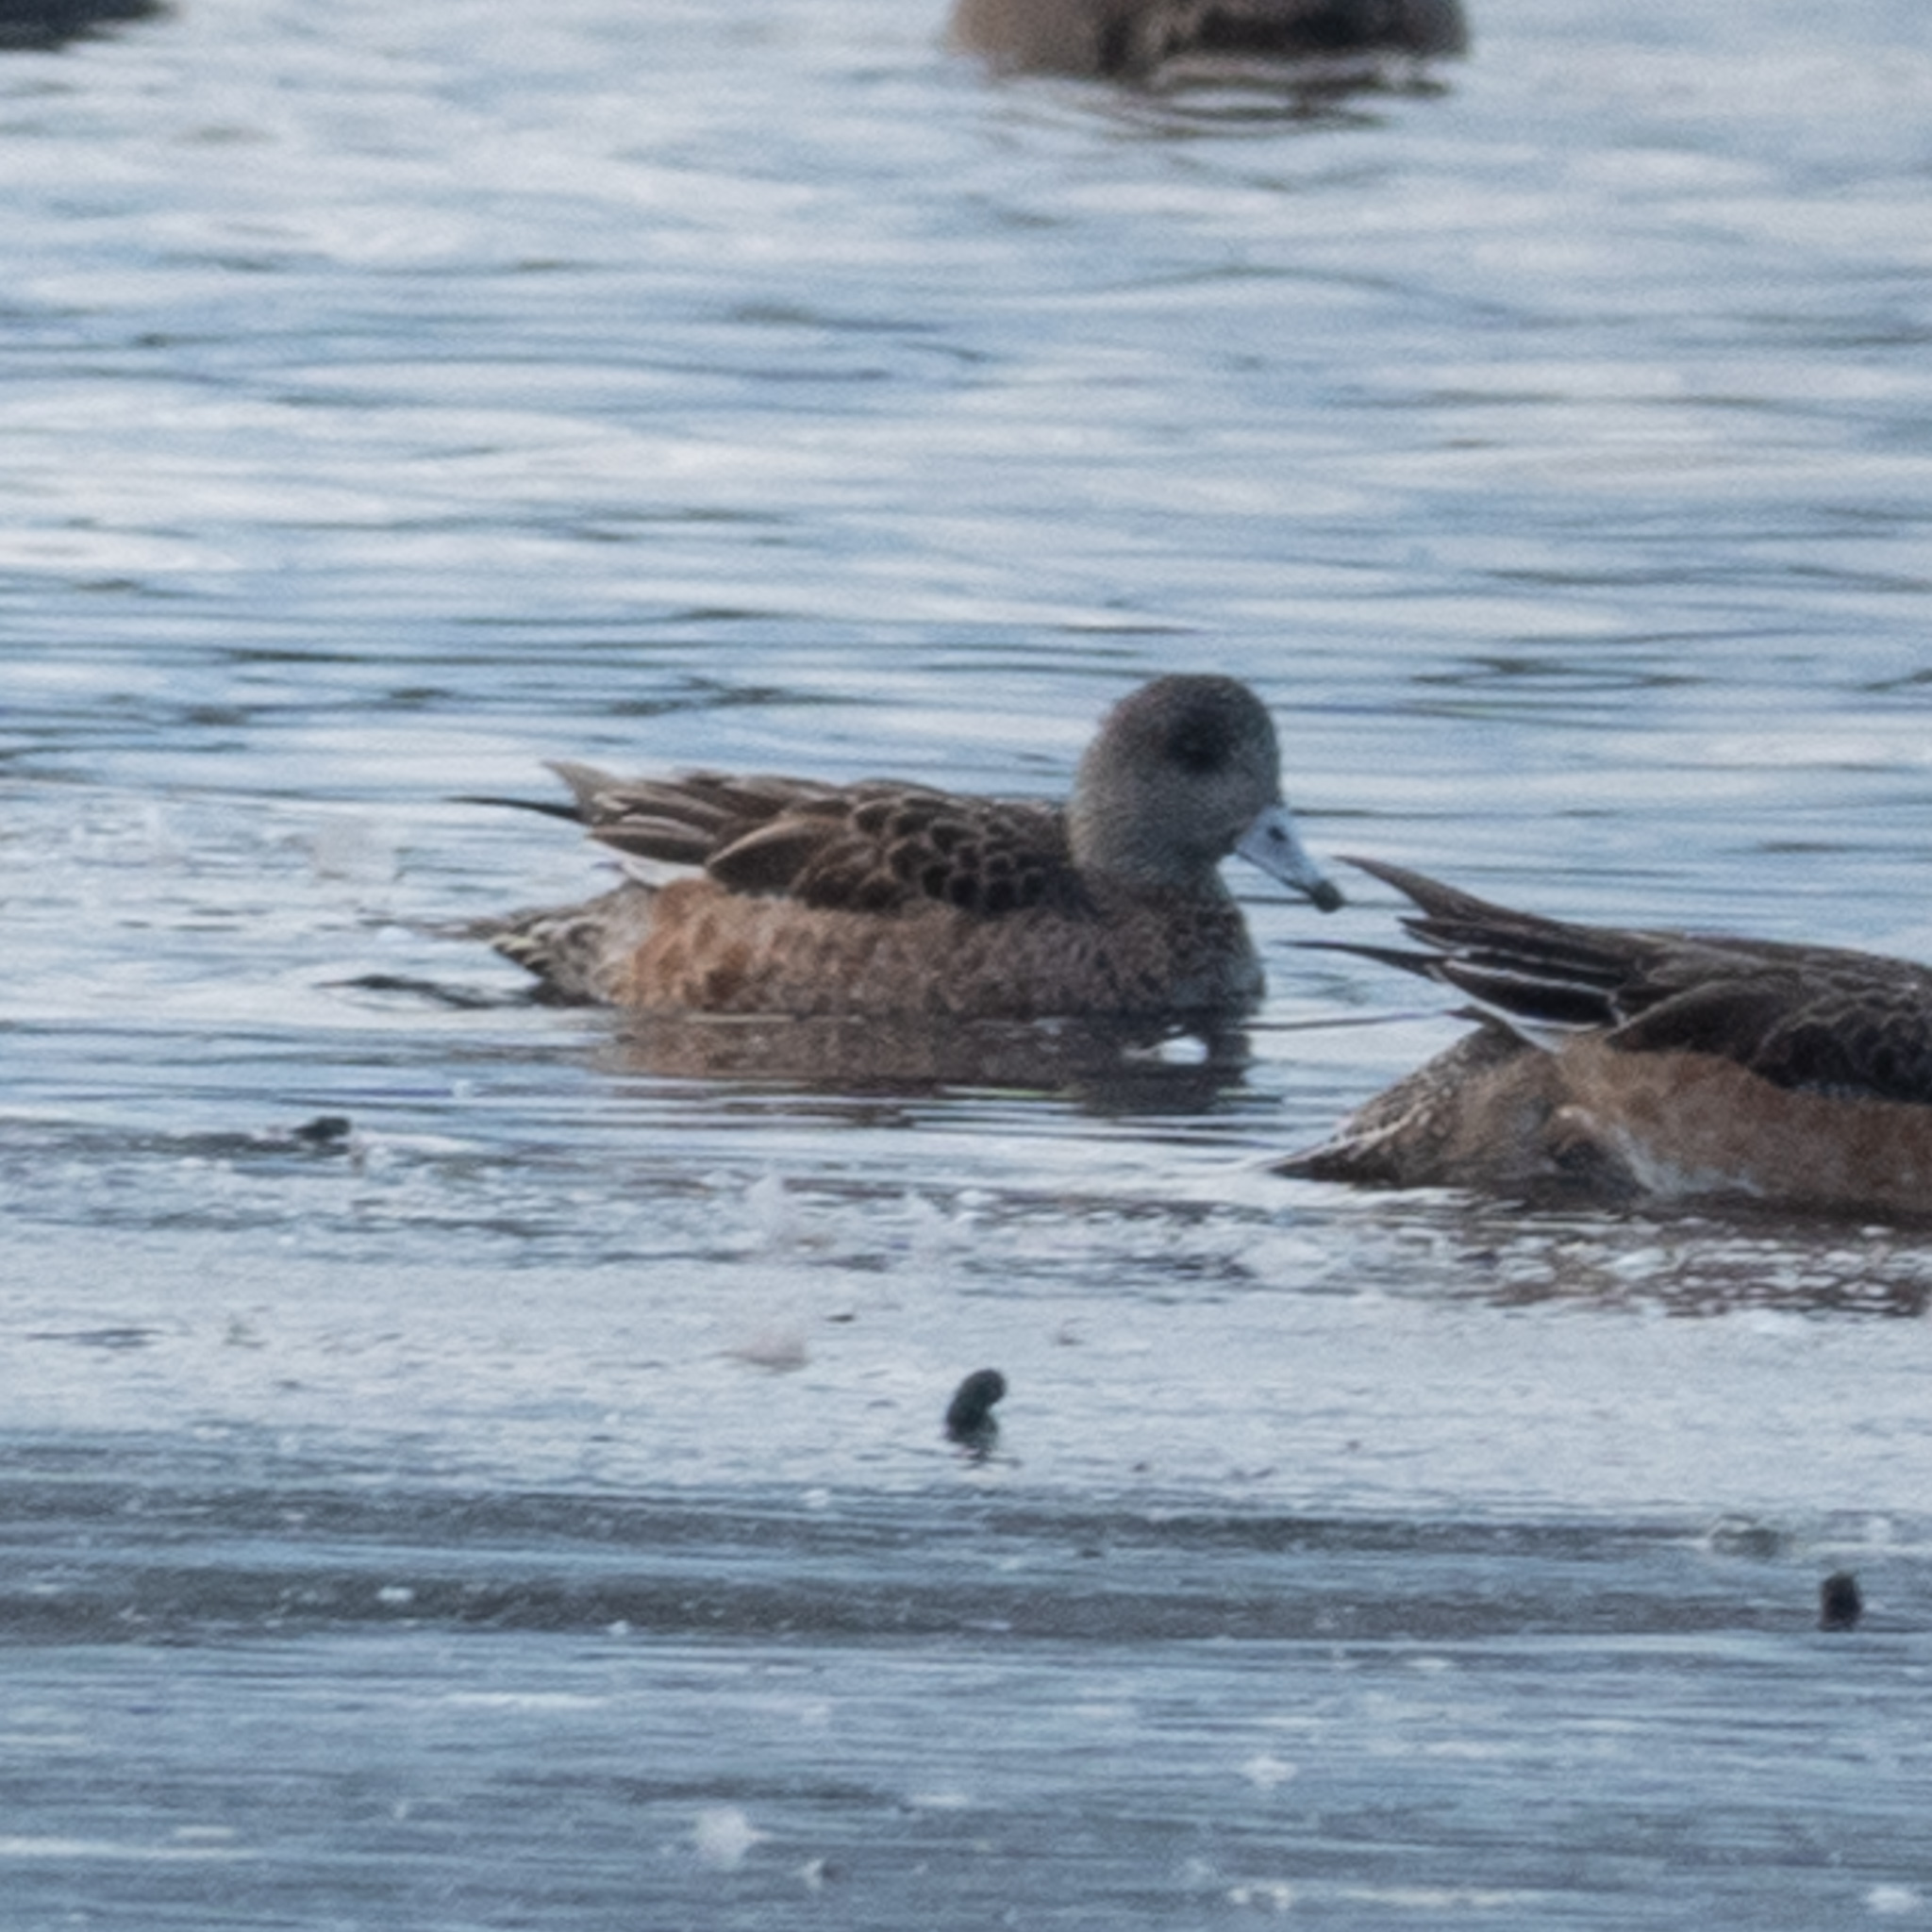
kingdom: Animalia
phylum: Chordata
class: Aves
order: Anseriformes
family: Anatidae
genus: Mareca
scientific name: Mareca americana
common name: American wigeon
